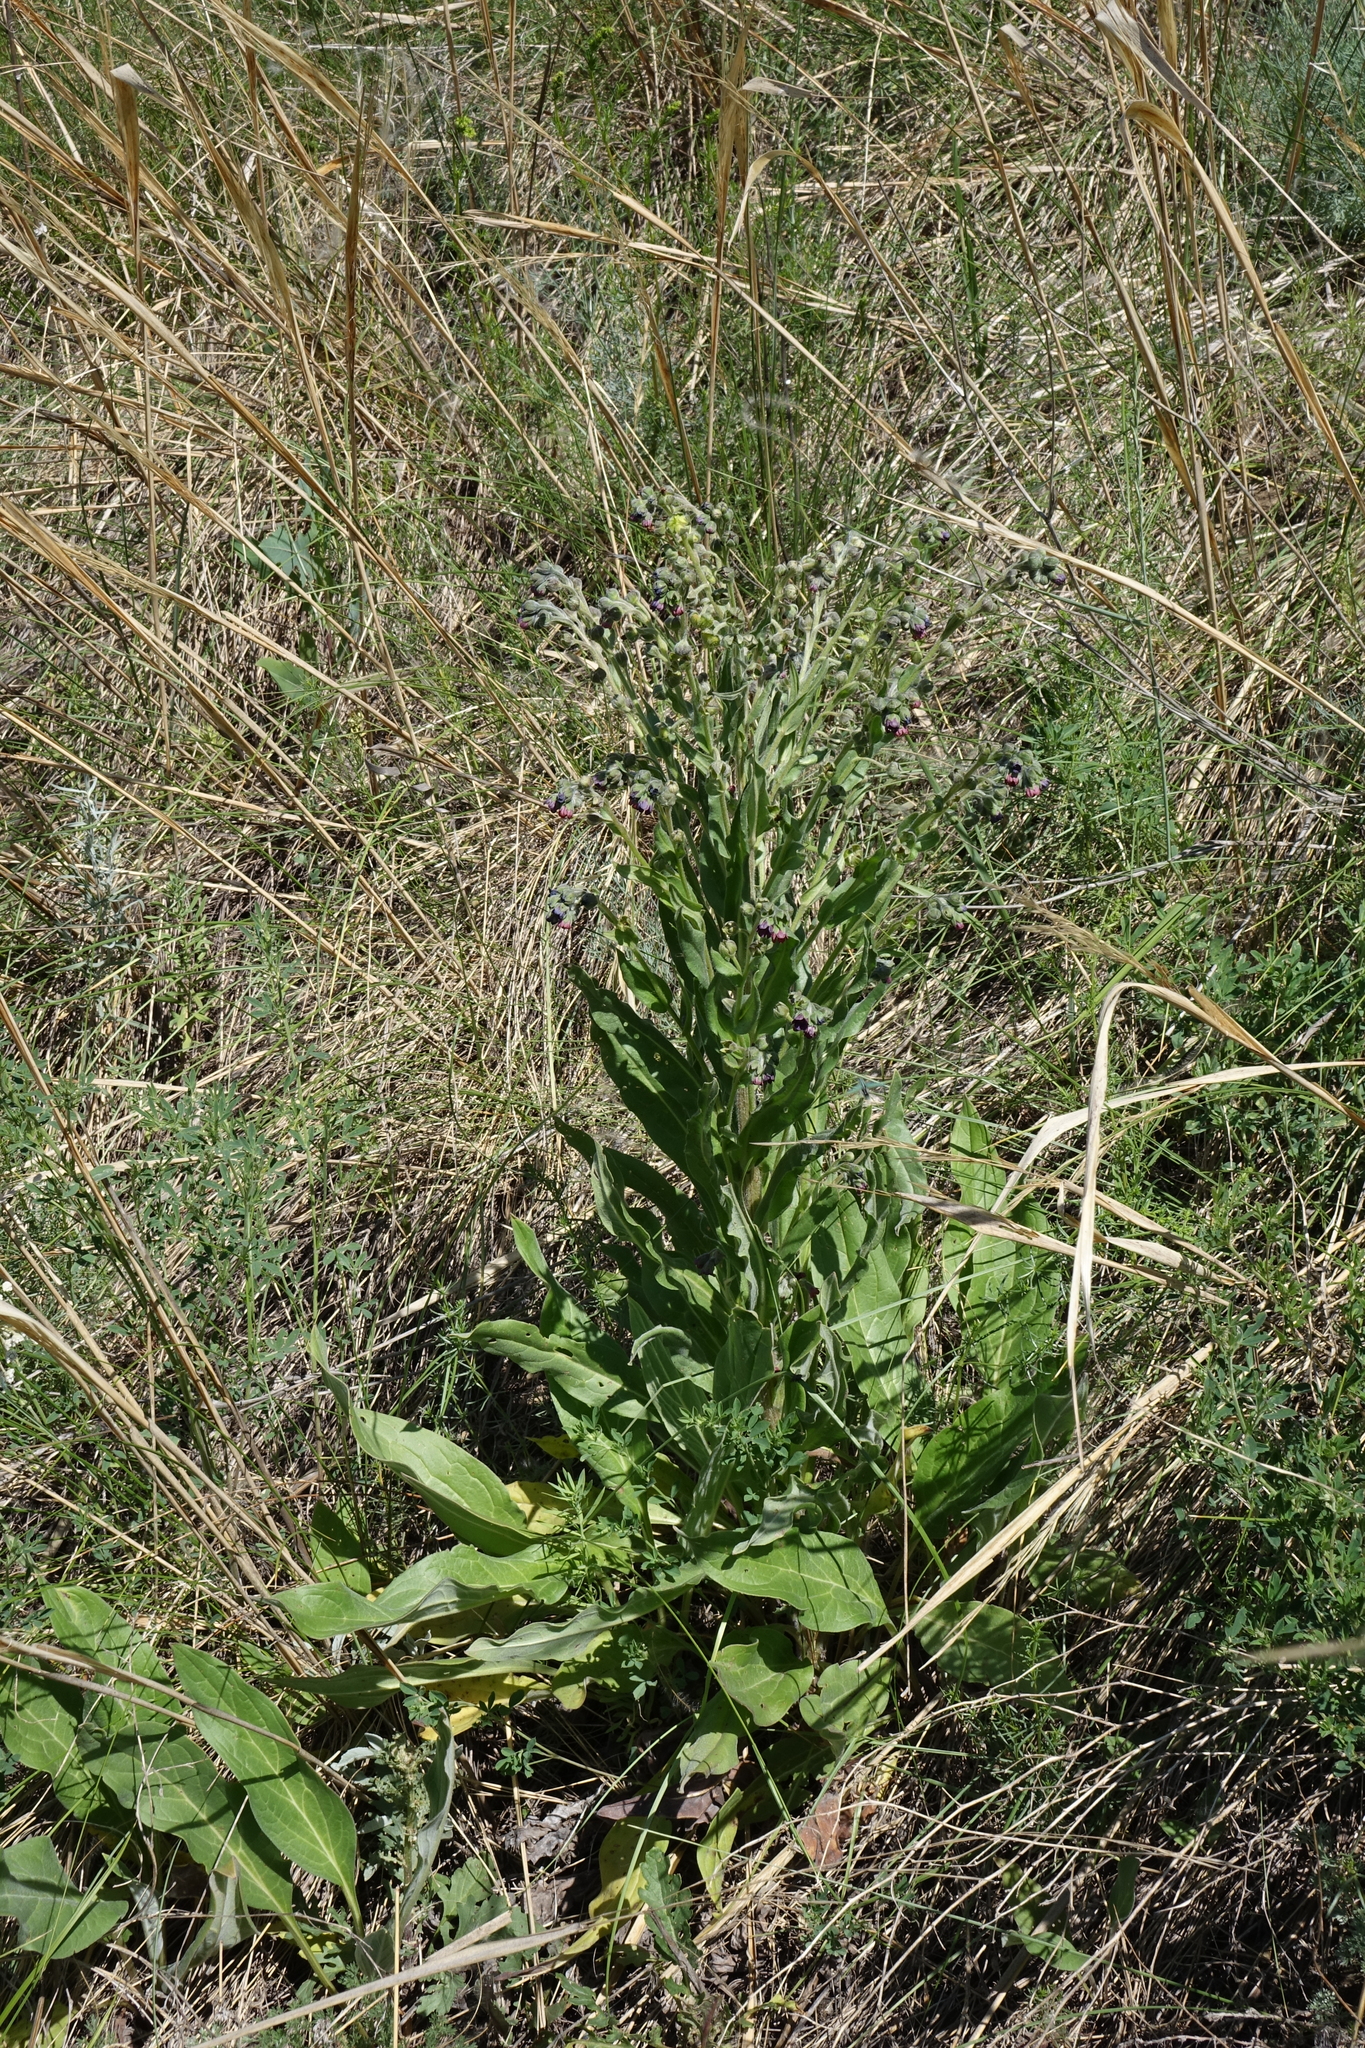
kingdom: Plantae
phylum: Tracheophyta
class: Magnoliopsida
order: Boraginales
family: Boraginaceae
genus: Cynoglossum
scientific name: Cynoglossum officinale
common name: Hound's-tongue
